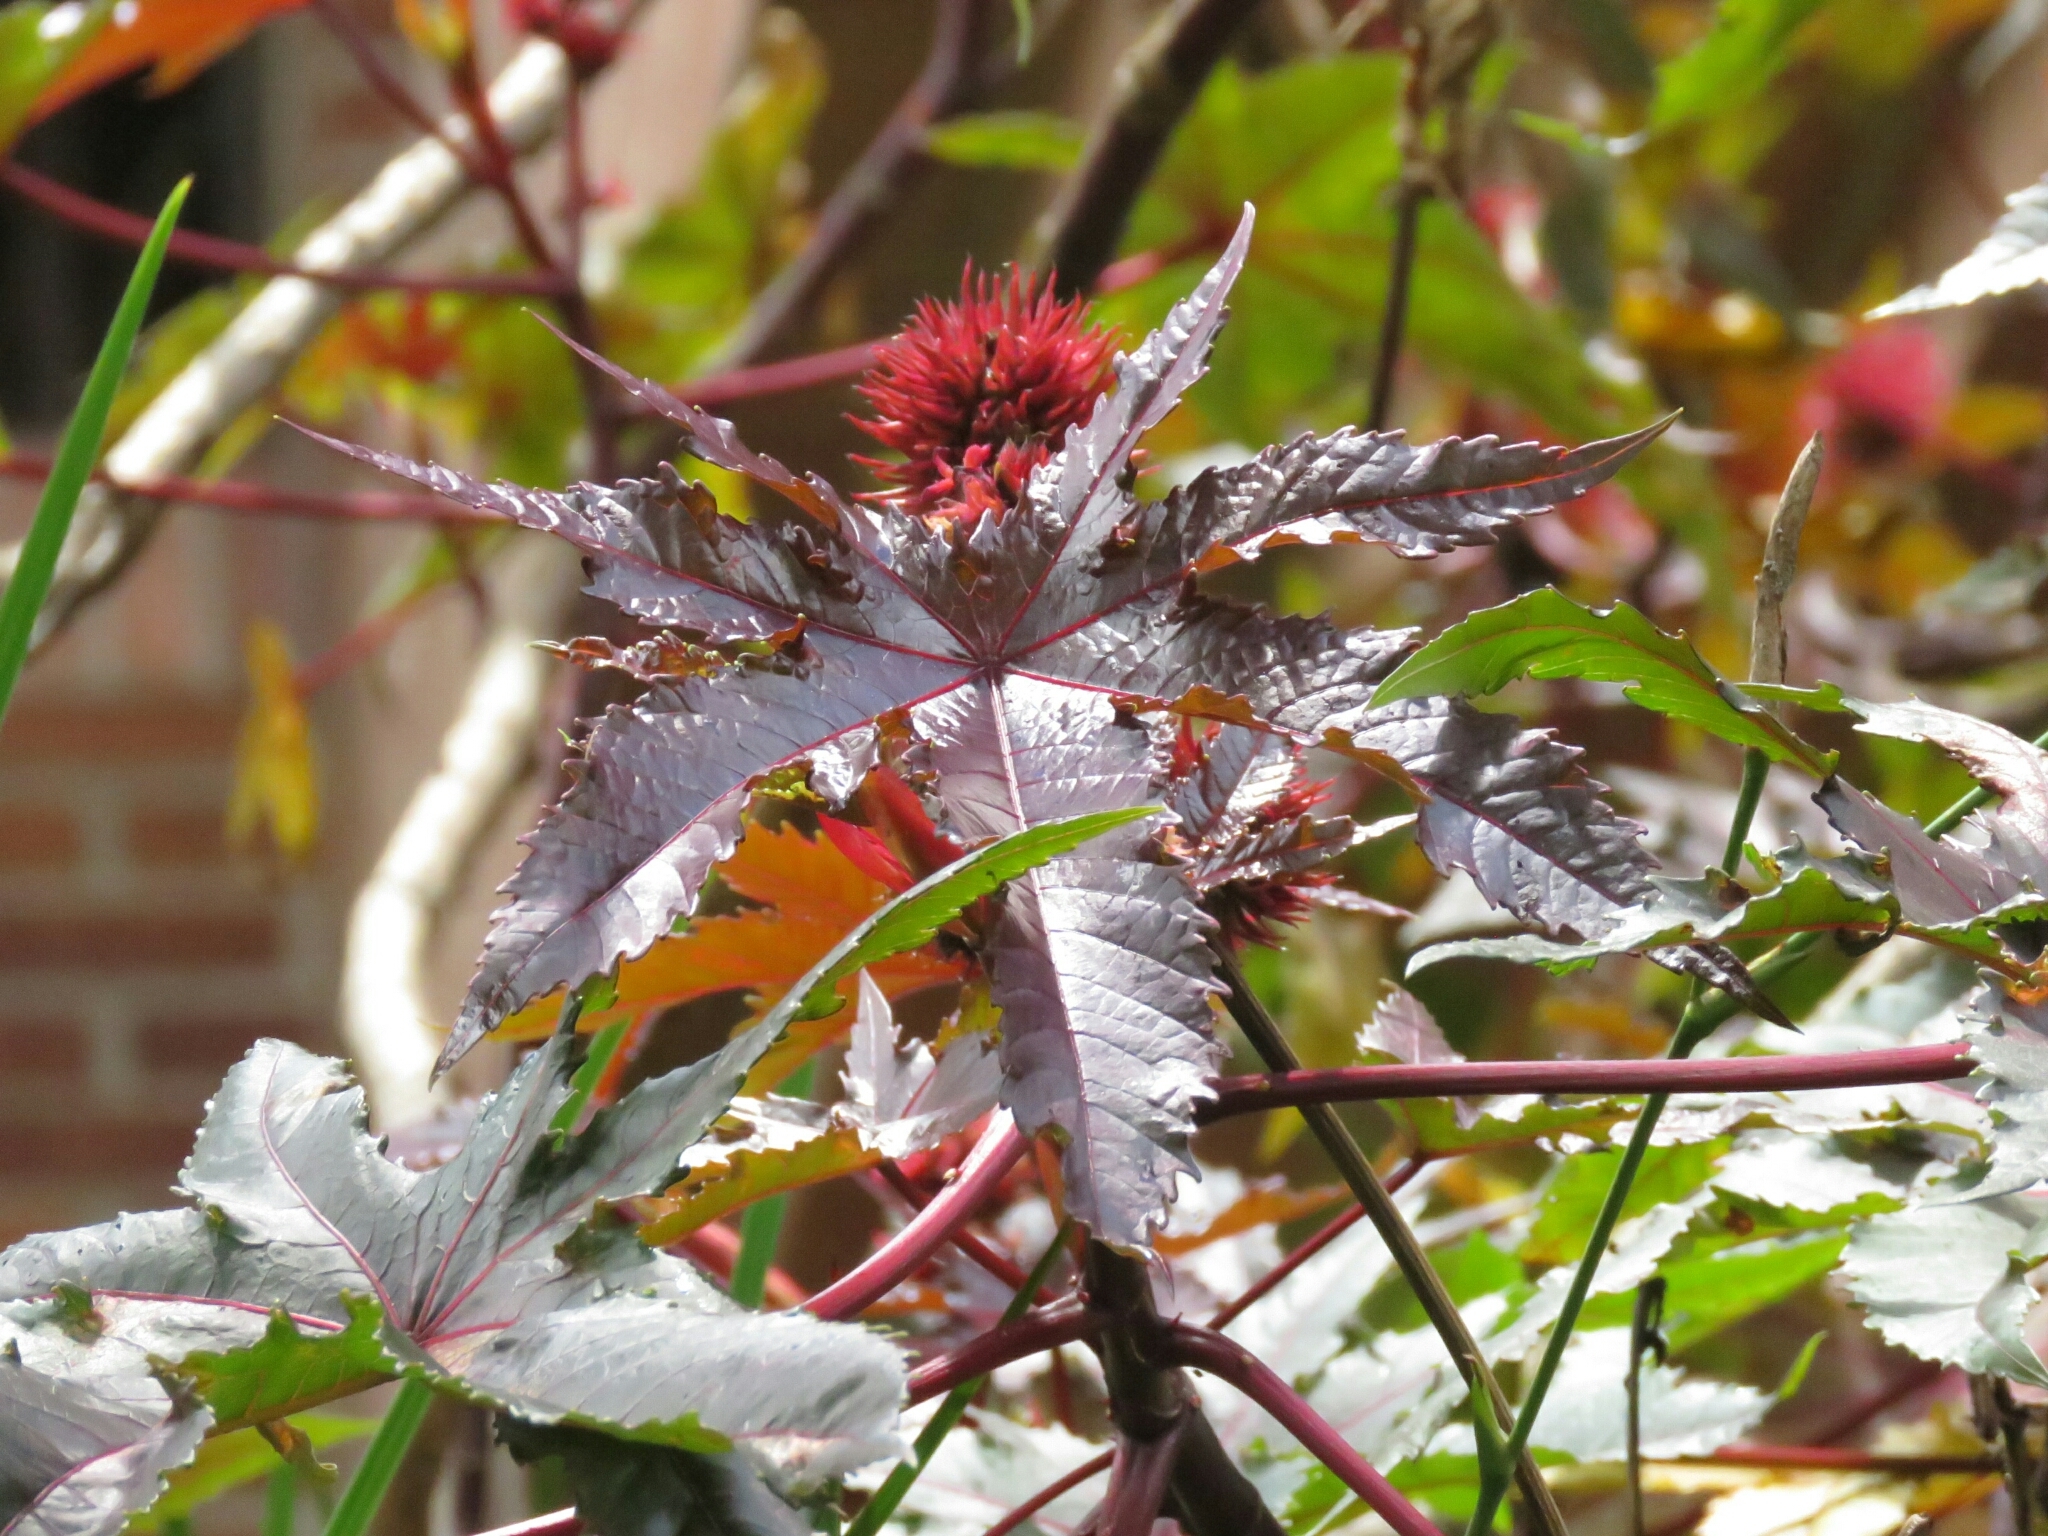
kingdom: Plantae
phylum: Tracheophyta
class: Magnoliopsida
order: Malpighiales
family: Euphorbiaceae
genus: Ricinus
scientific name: Ricinus communis
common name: Castor-oil-plant
